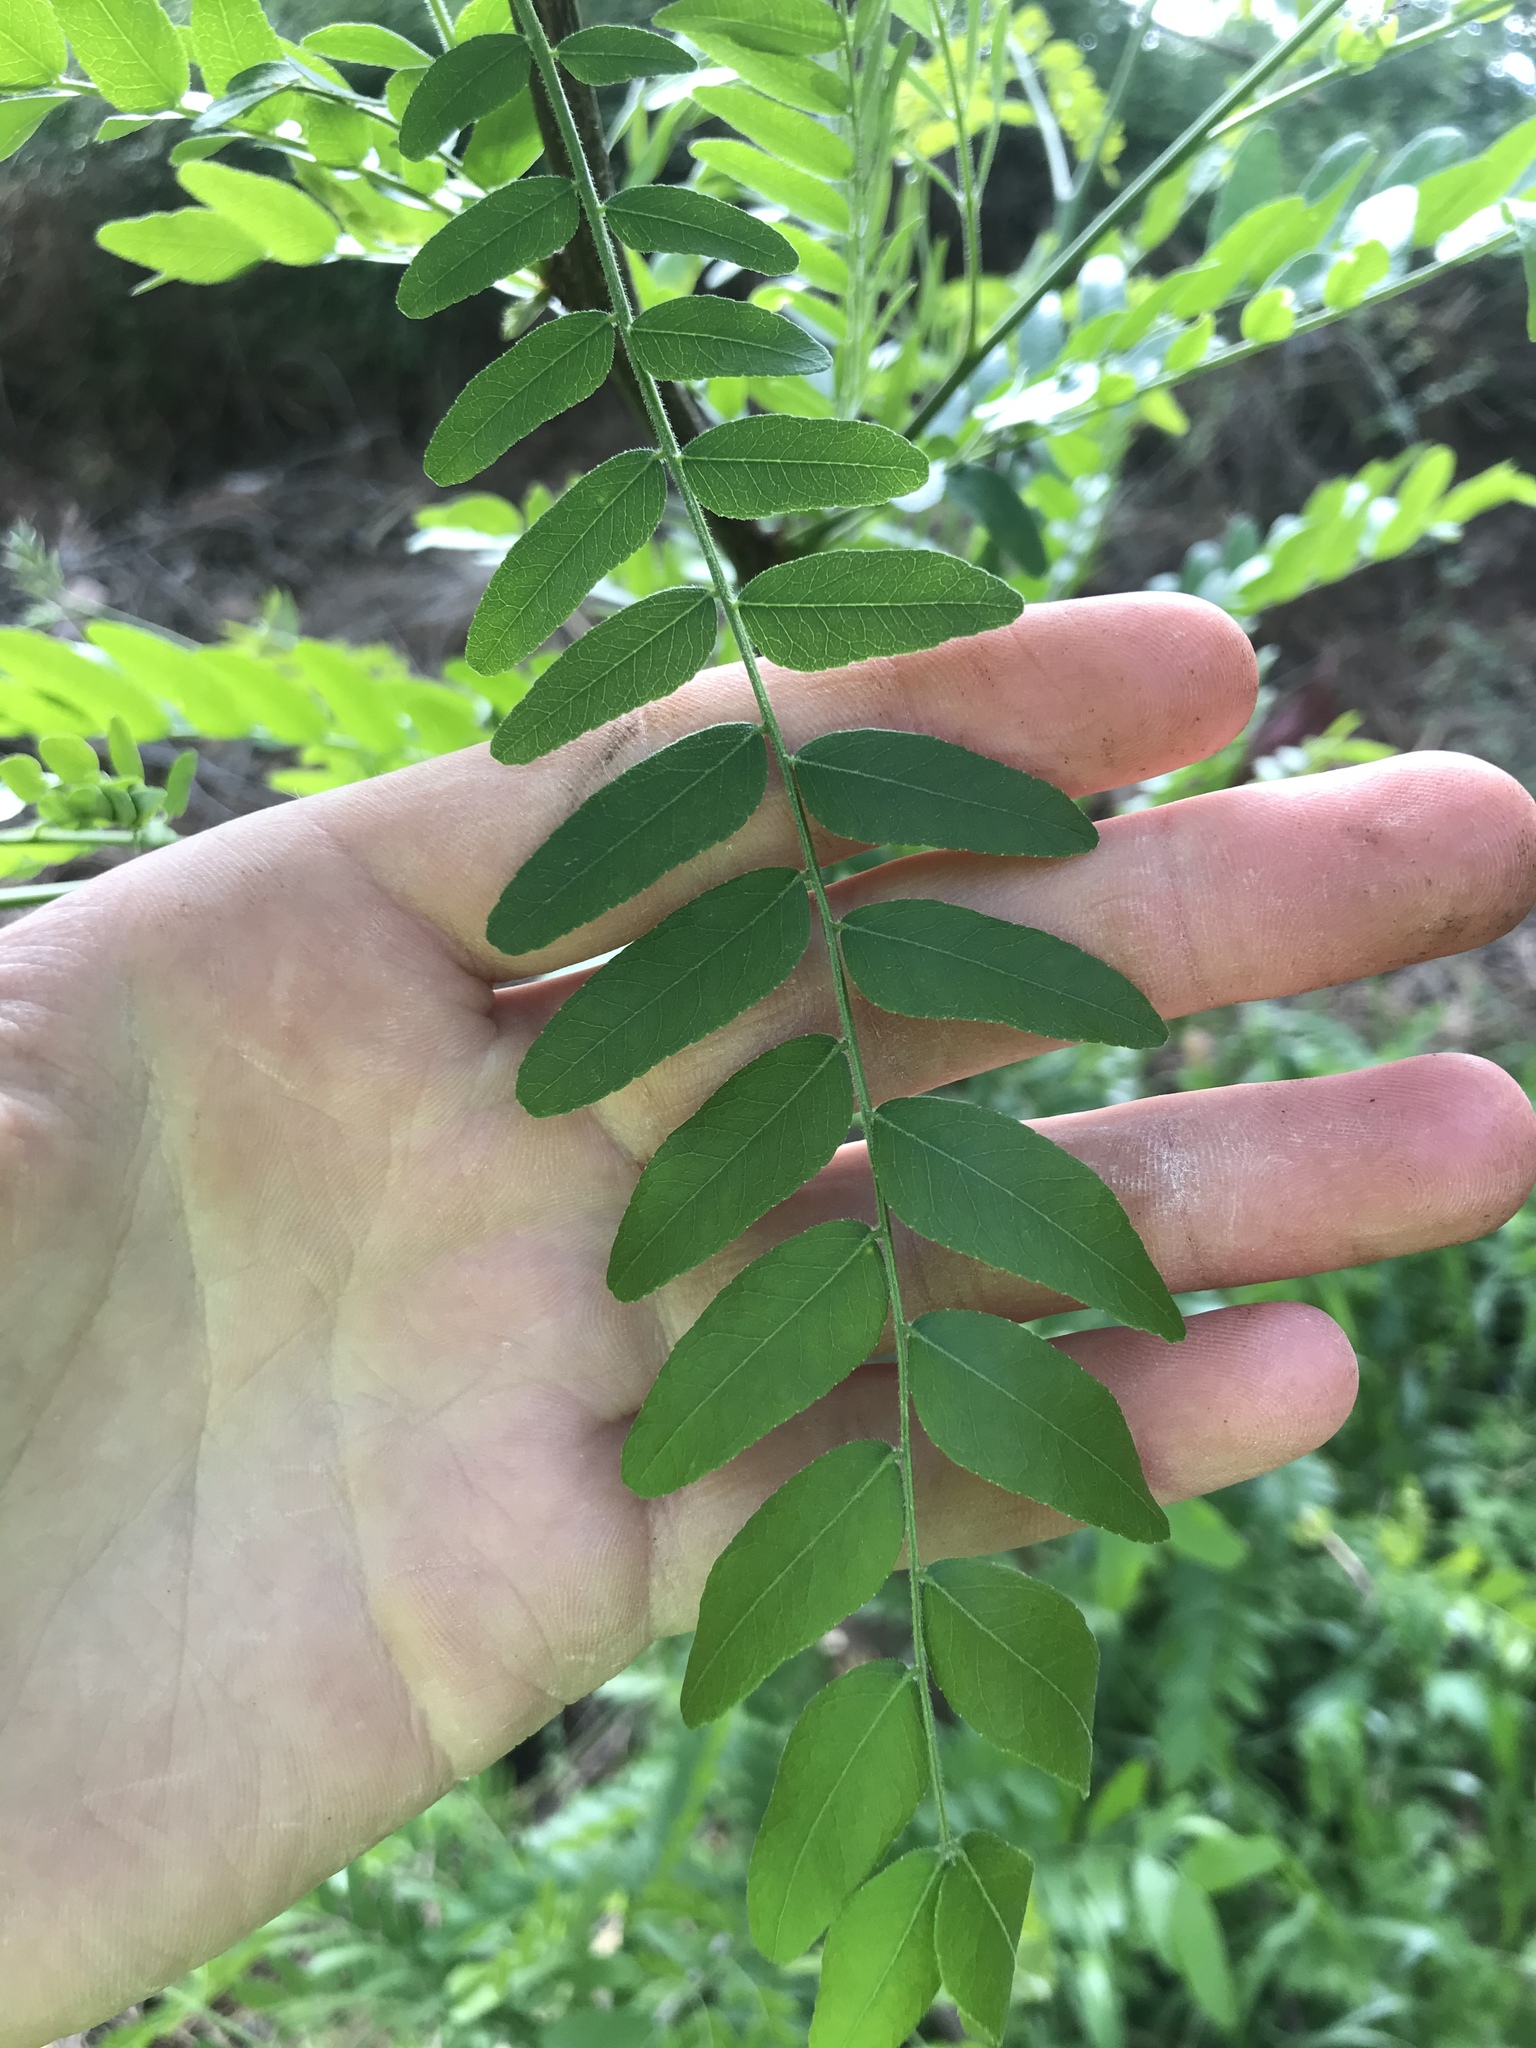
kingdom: Plantae
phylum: Tracheophyta
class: Magnoliopsida
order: Fabales
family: Fabaceae
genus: Gleditsia
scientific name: Gleditsia triacanthos
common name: Common honeylocust
